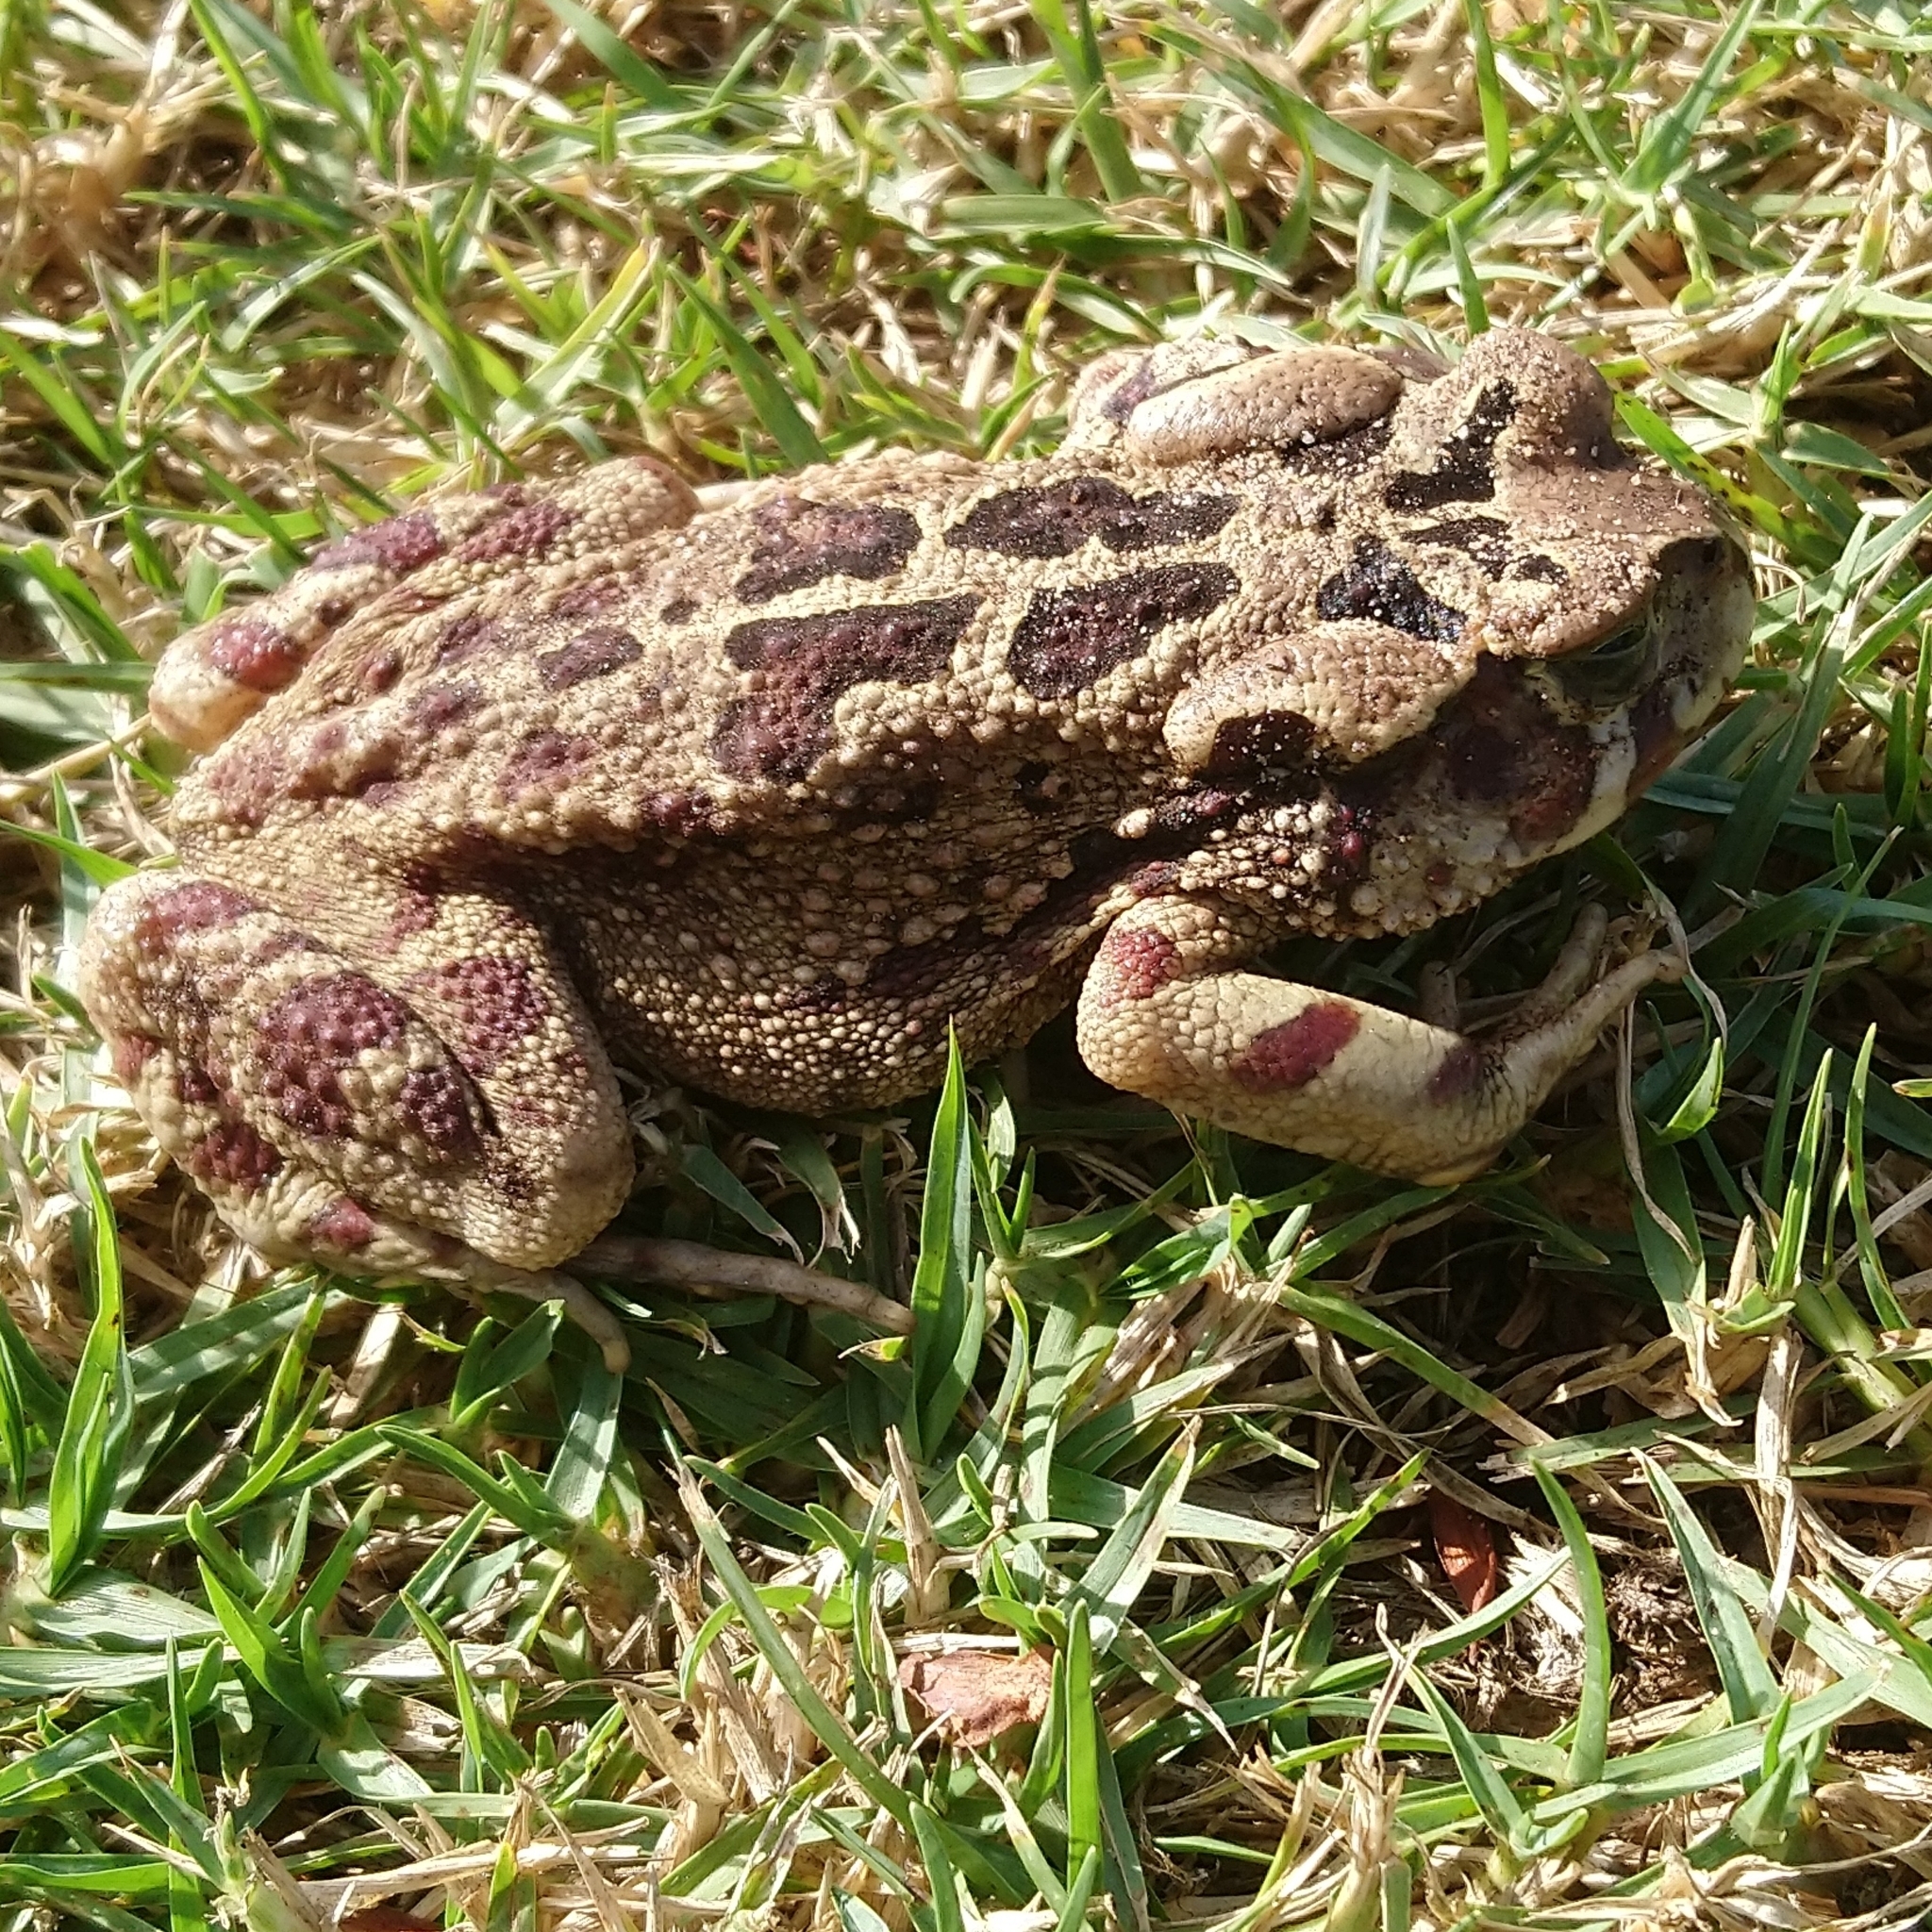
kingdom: Animalia
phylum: Chordata
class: Amphibia
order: Anura
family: Bufonidae
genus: Sclerophrys
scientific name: Sclerophrys pardalis
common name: Eastern leopard toad
